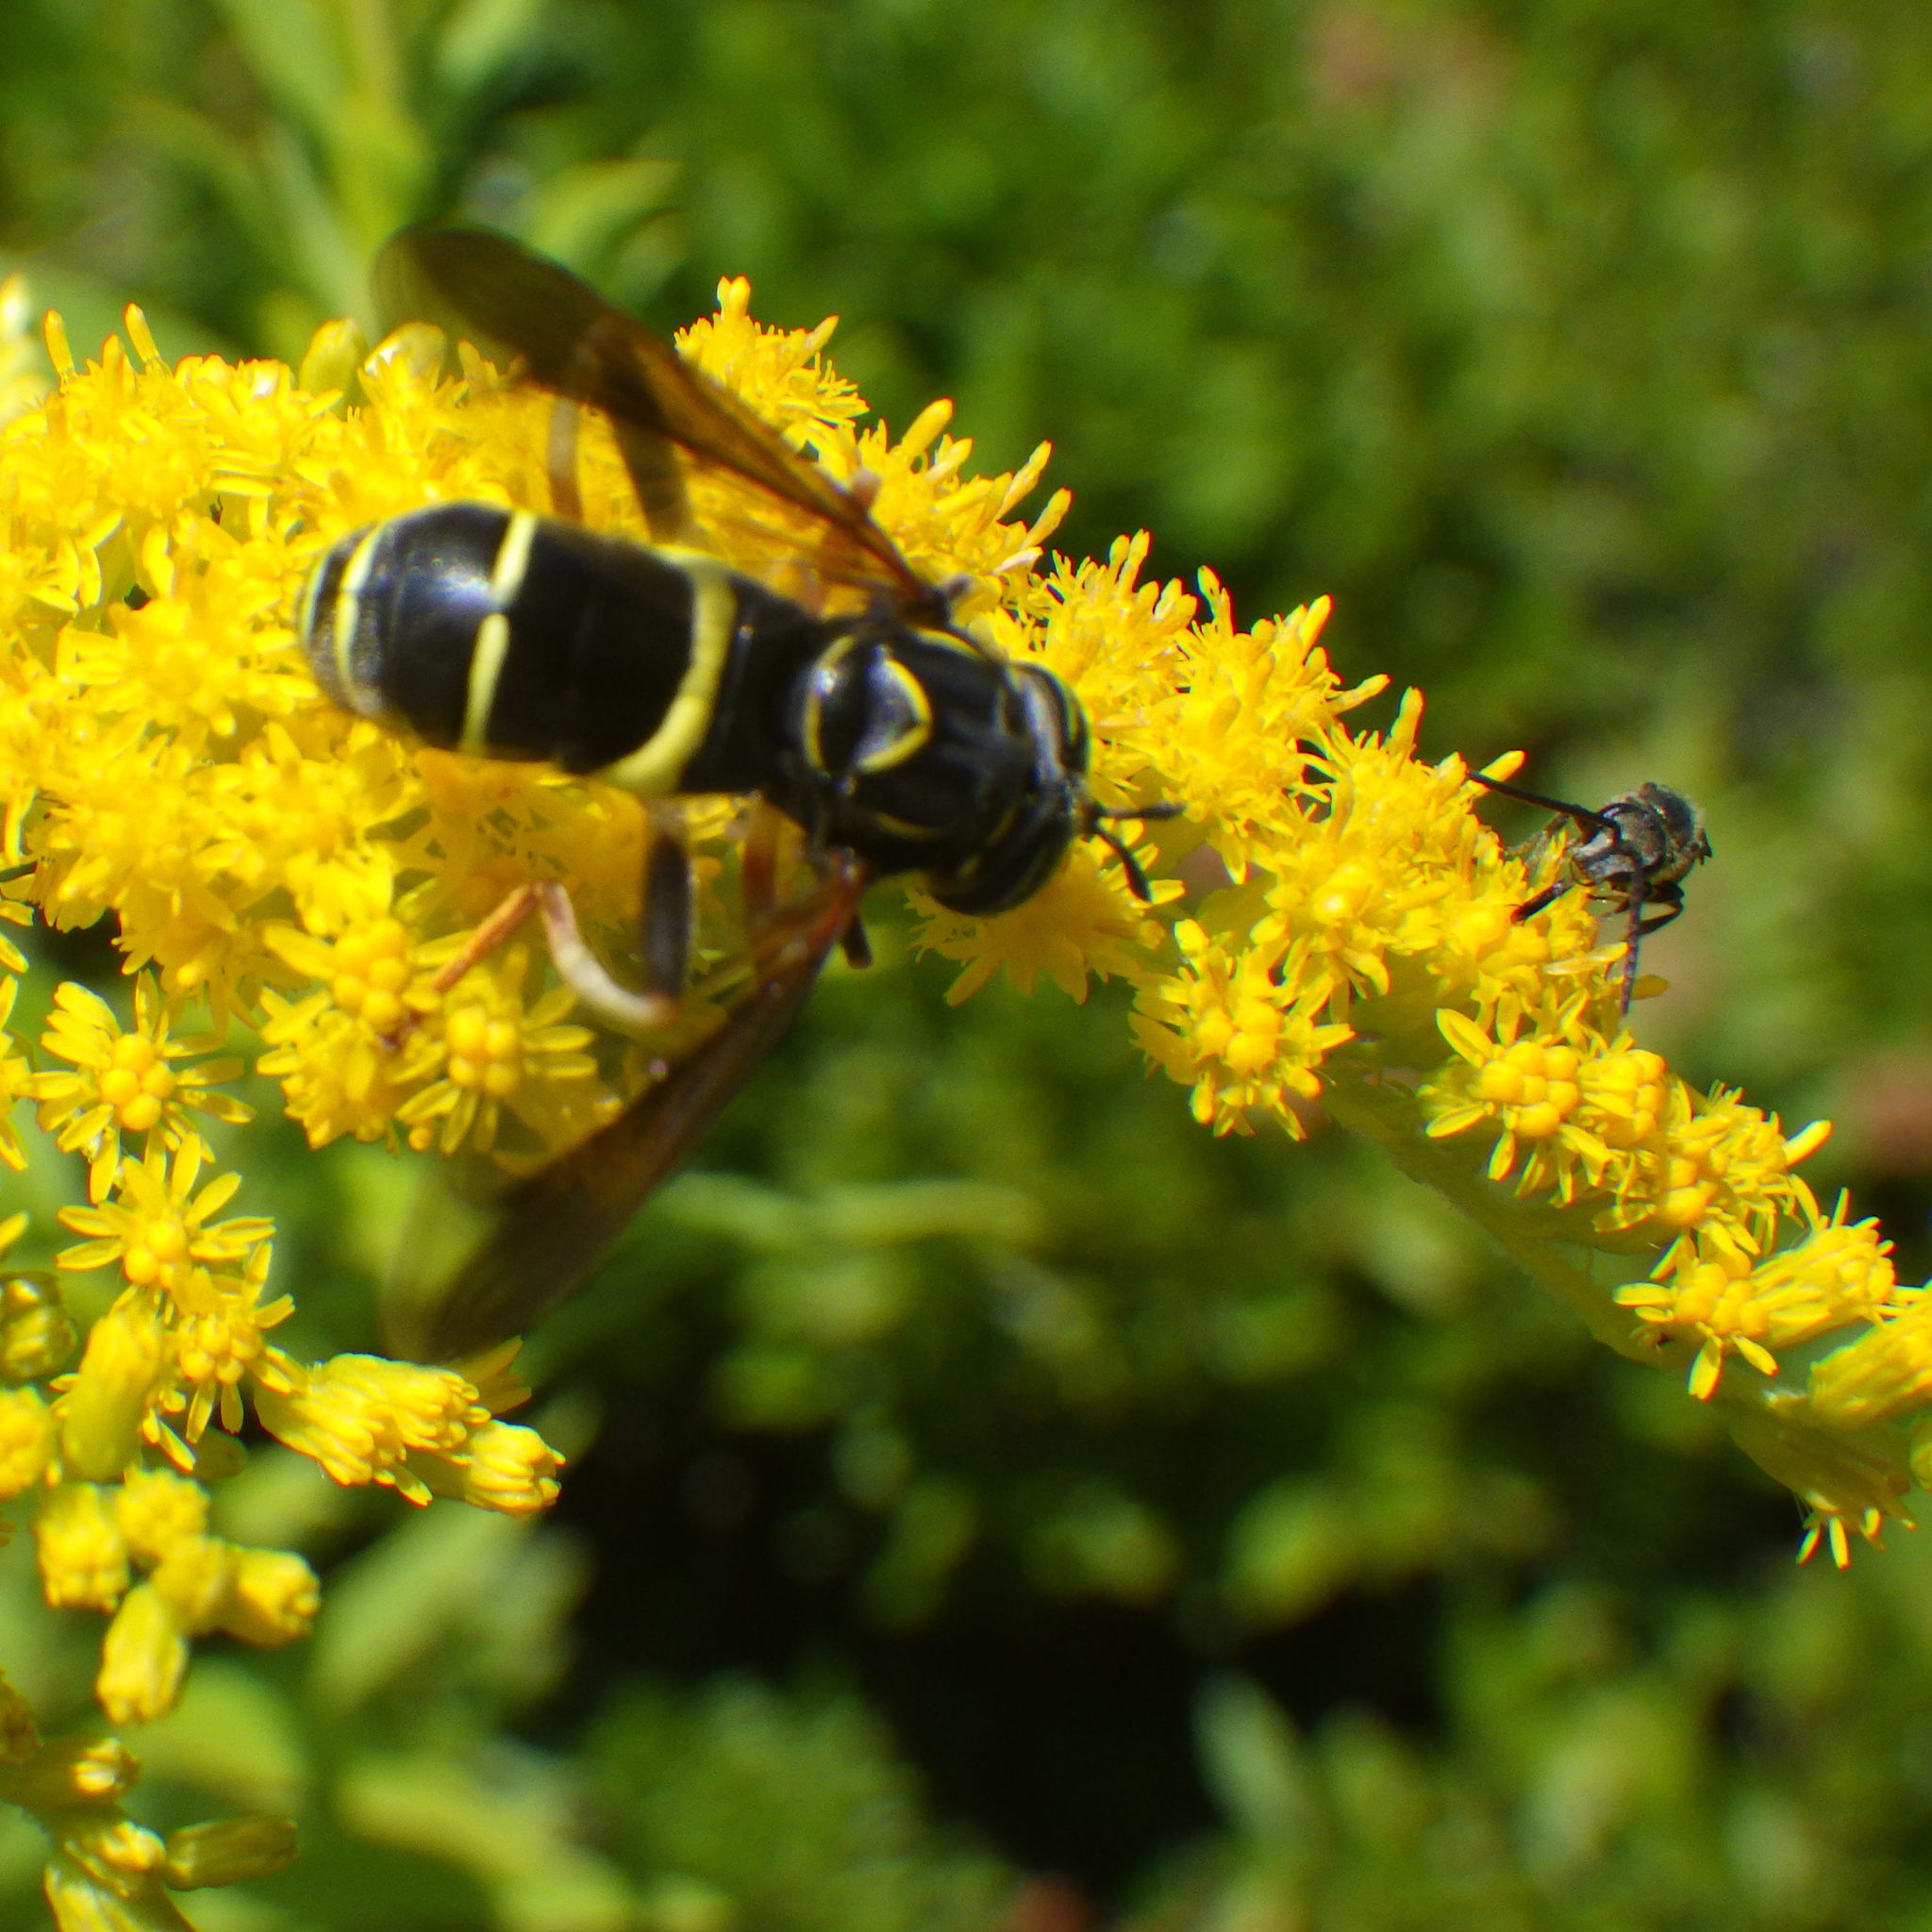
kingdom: Animalia
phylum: Arthropoda
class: Insecta
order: Diptera
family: Syrphidae
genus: Spilomyia
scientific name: Spilomyia sayi
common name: Four-lined hornet fly
